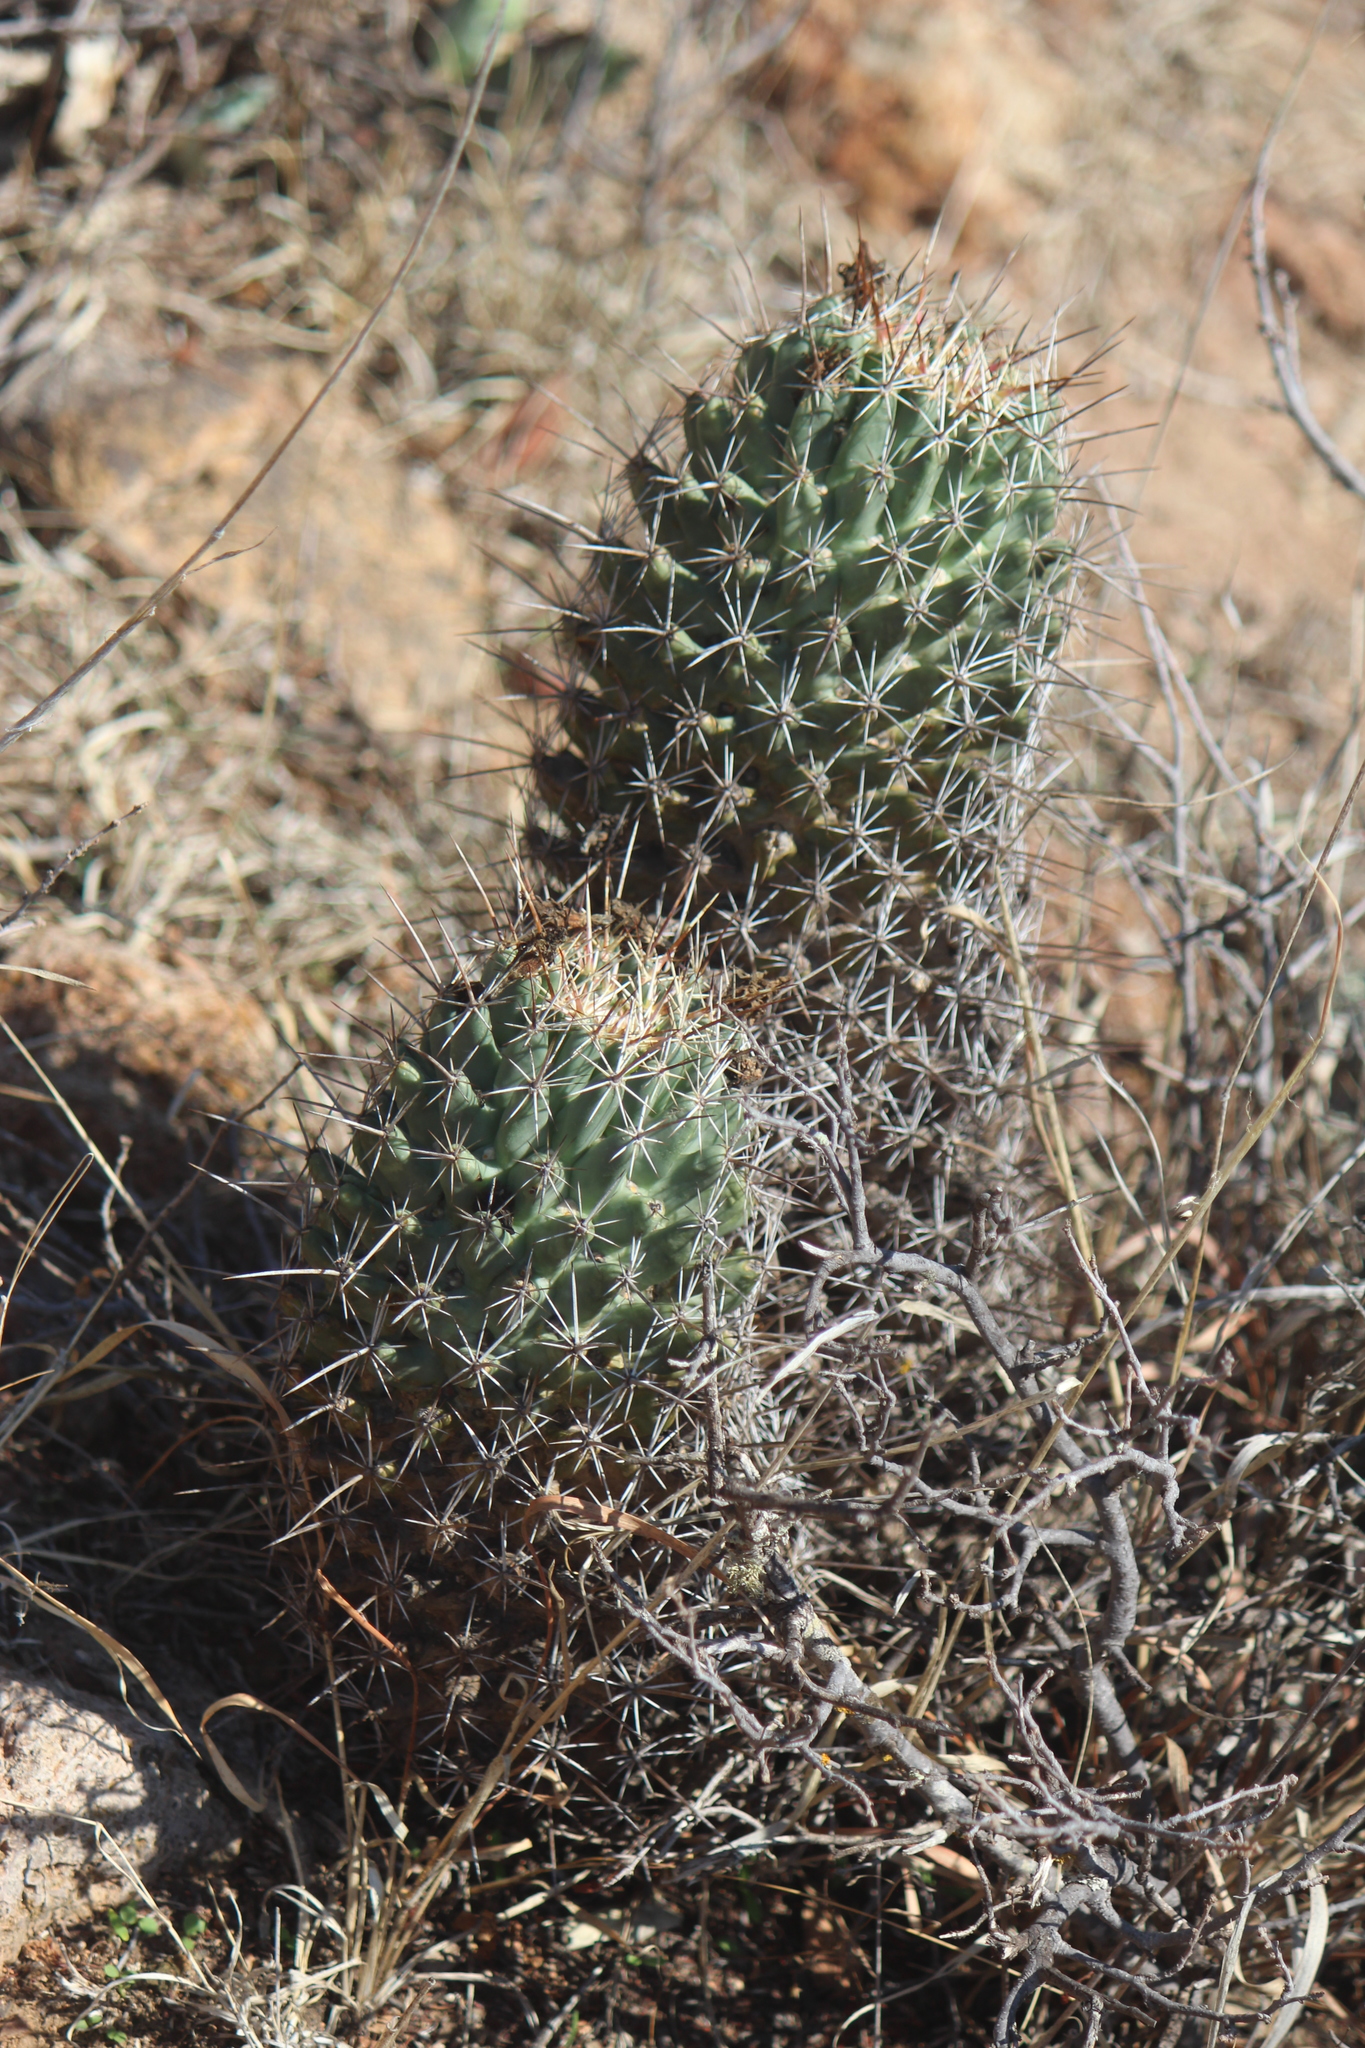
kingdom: Plantae
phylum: Tracheophyta
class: Magnoliopsida
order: Caryophyllales
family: Cactaceae
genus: Coryphantha
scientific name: Coryphantha octacantha
